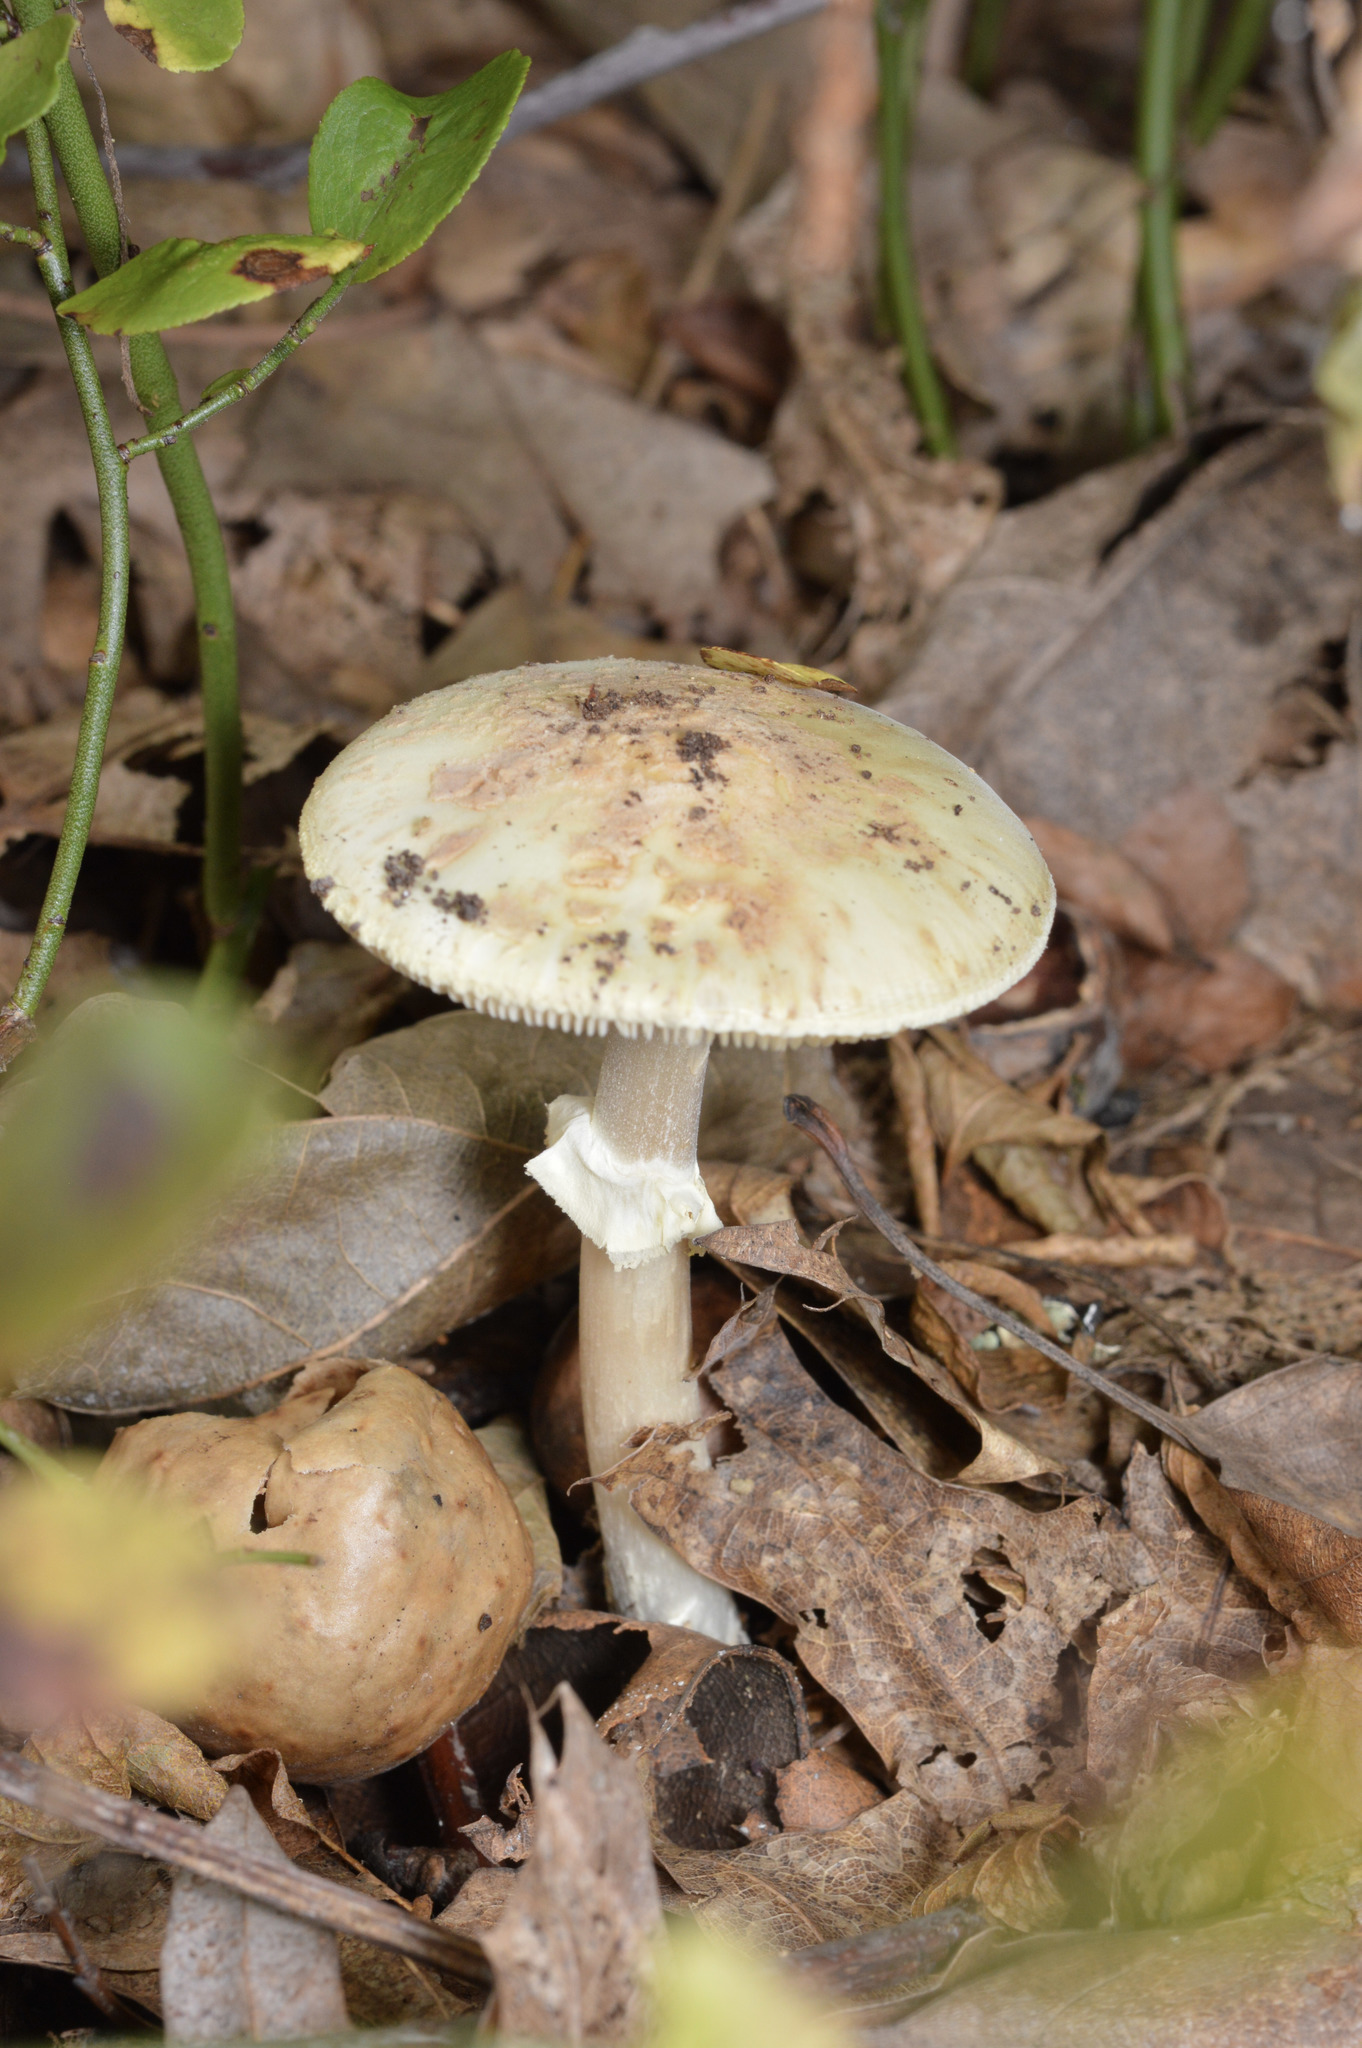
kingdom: Fungi
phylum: Basidiomycota
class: Agaricomycetes
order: Agaricales
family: Amanitaceae
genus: Amanita
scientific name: Amanita lavendula
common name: Coker's lavender staining amanita
